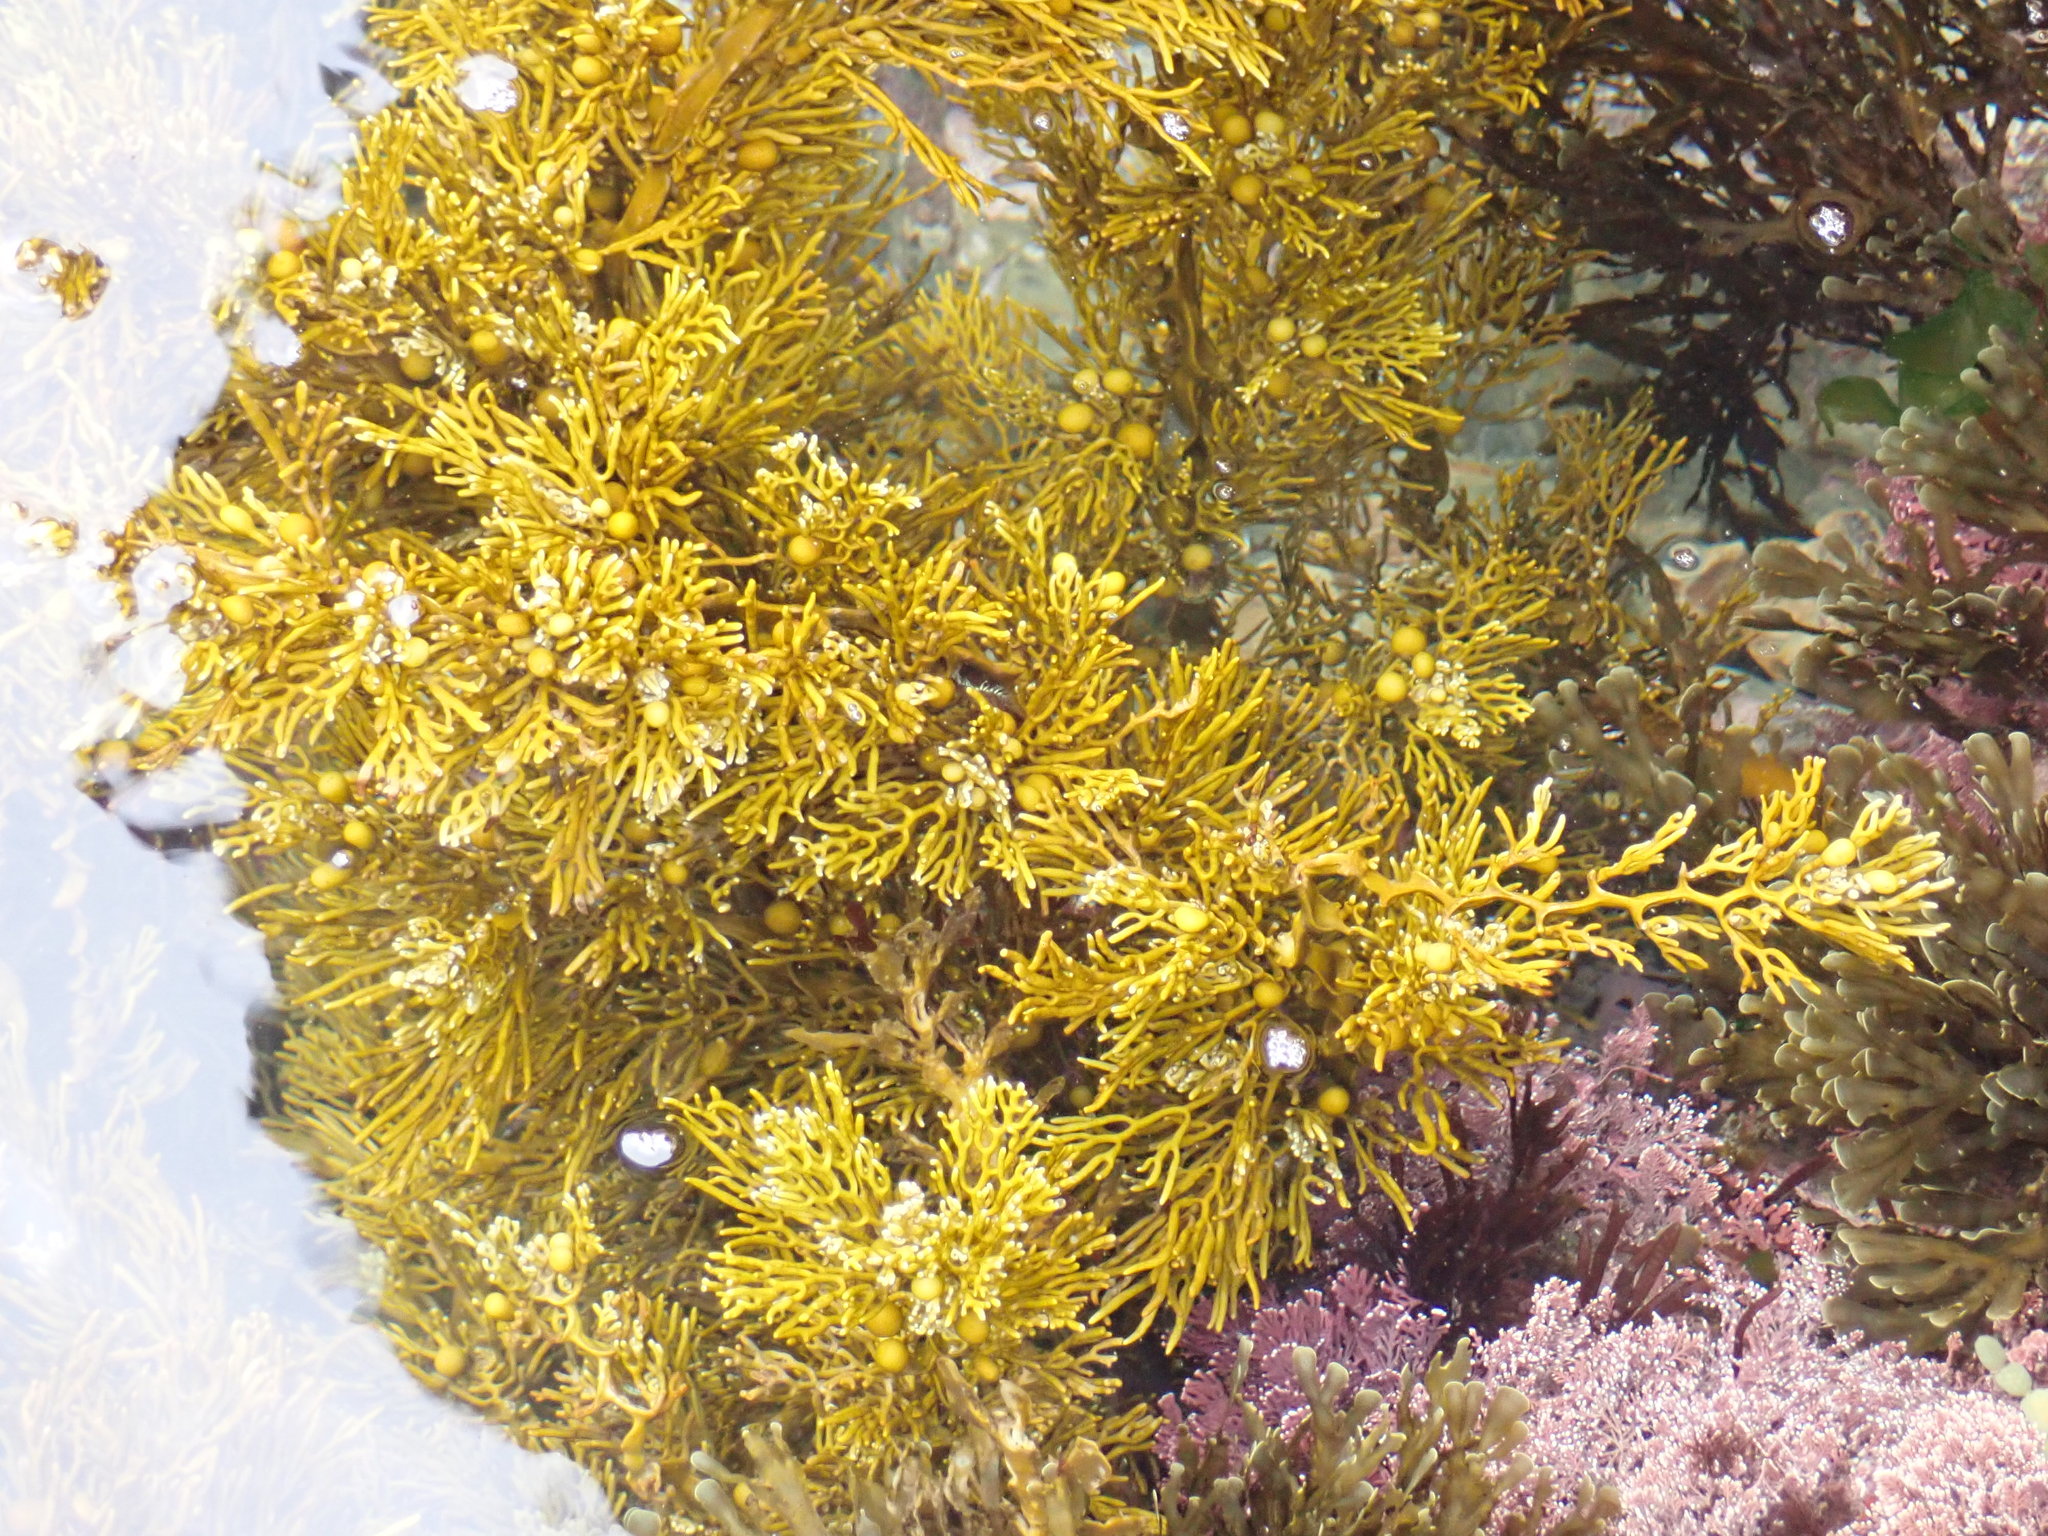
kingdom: Chromista
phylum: Ochrophyta
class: Phaeophyceae
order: Fucales
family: Sargassaceae
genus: Cystophora
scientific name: Cystophora scalaris
